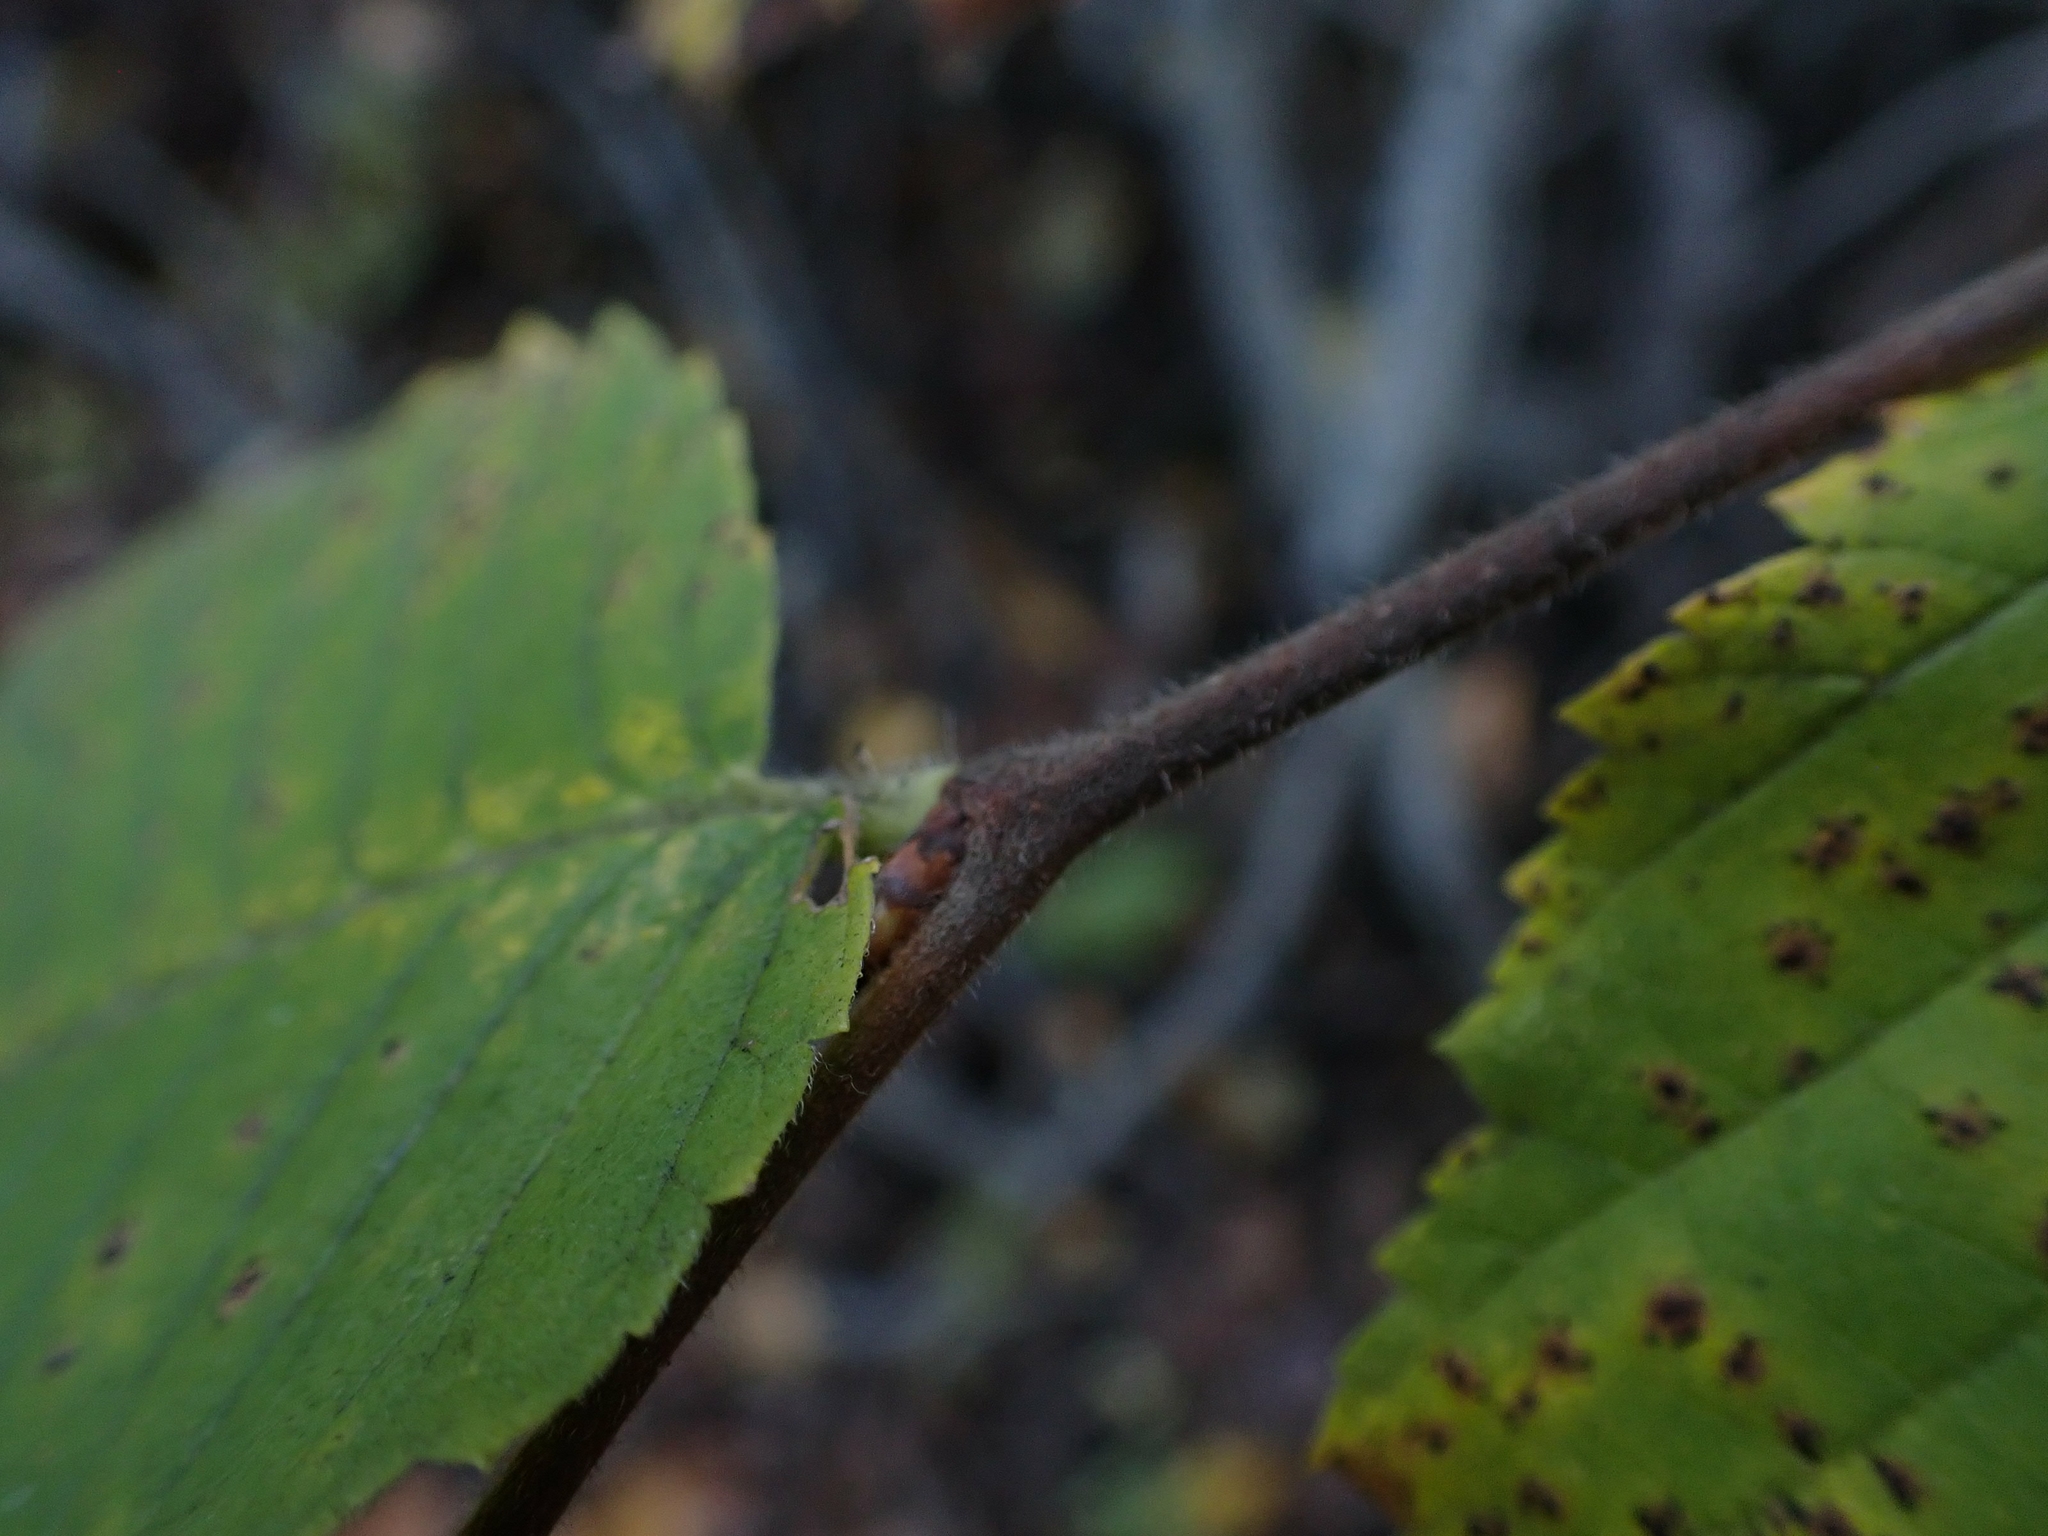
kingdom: Plantae
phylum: Tracheophyta
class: Magnoliopsida
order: Rosales
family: Ulmaceae
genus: Ulmus
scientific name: Ulmus americana
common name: American elm
